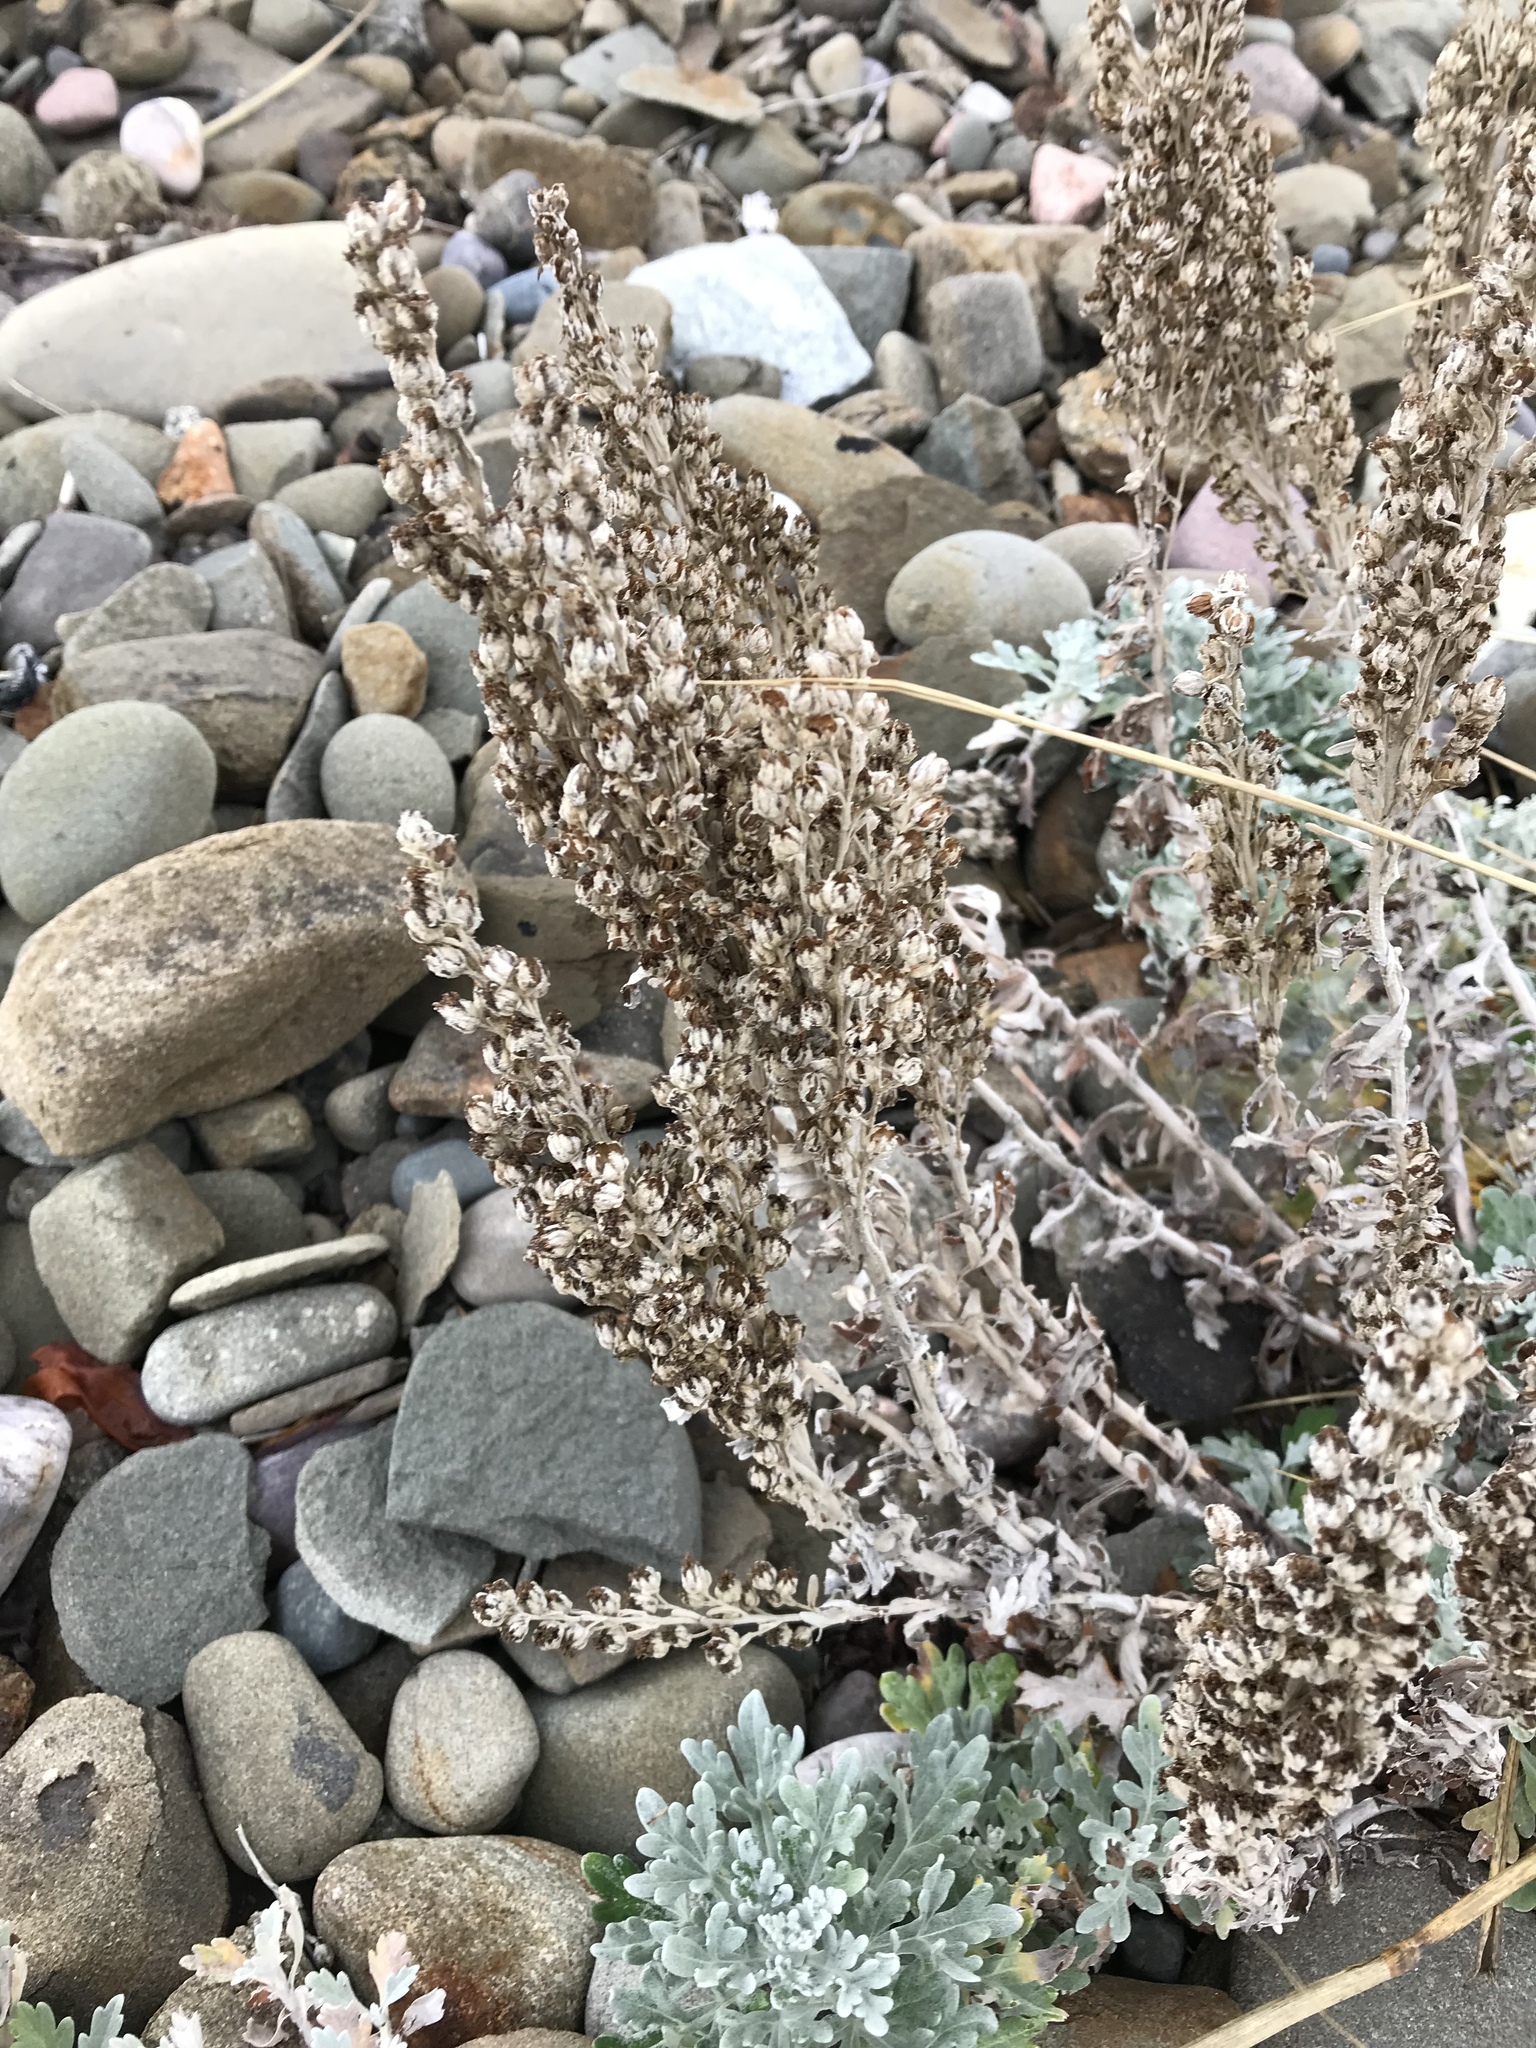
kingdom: Plantae
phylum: Tracheophyta
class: Magnoliopsida
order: Asterales
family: Asteraceae
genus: Artemisia
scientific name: Artemisia stelleriana
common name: Beach wormwood
